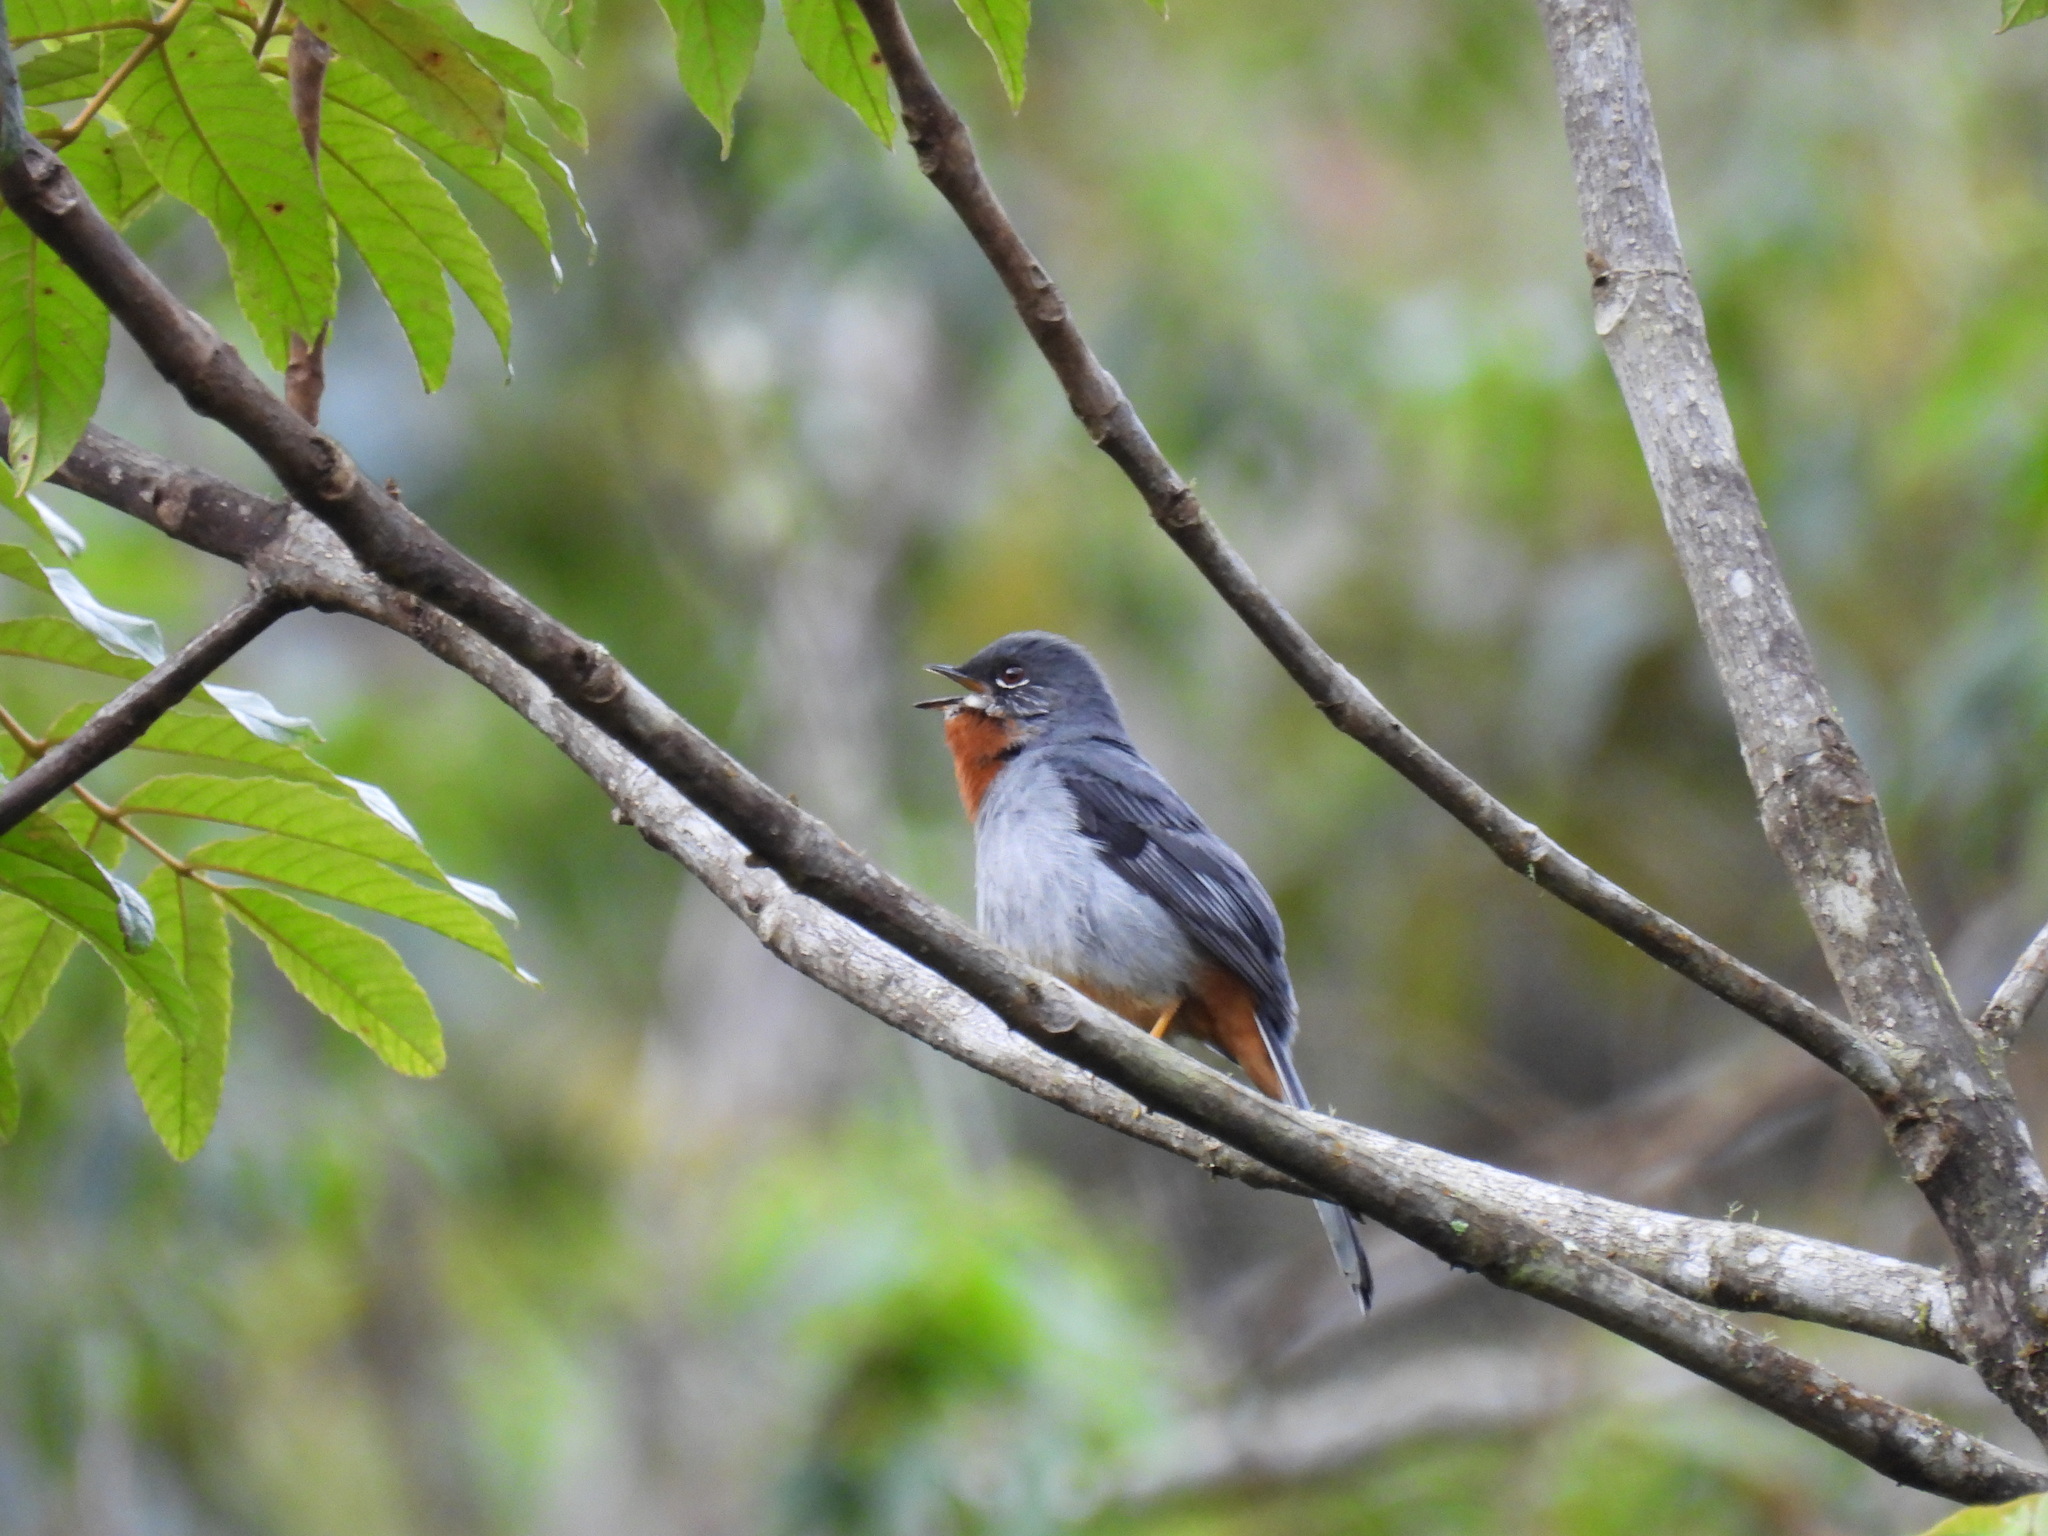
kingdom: Animalia
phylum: Chordata
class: Aves
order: Passeriformes
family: Turdidae
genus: Myadestes
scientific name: Myadestes genibarbis
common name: Rufous-throated solitaire
